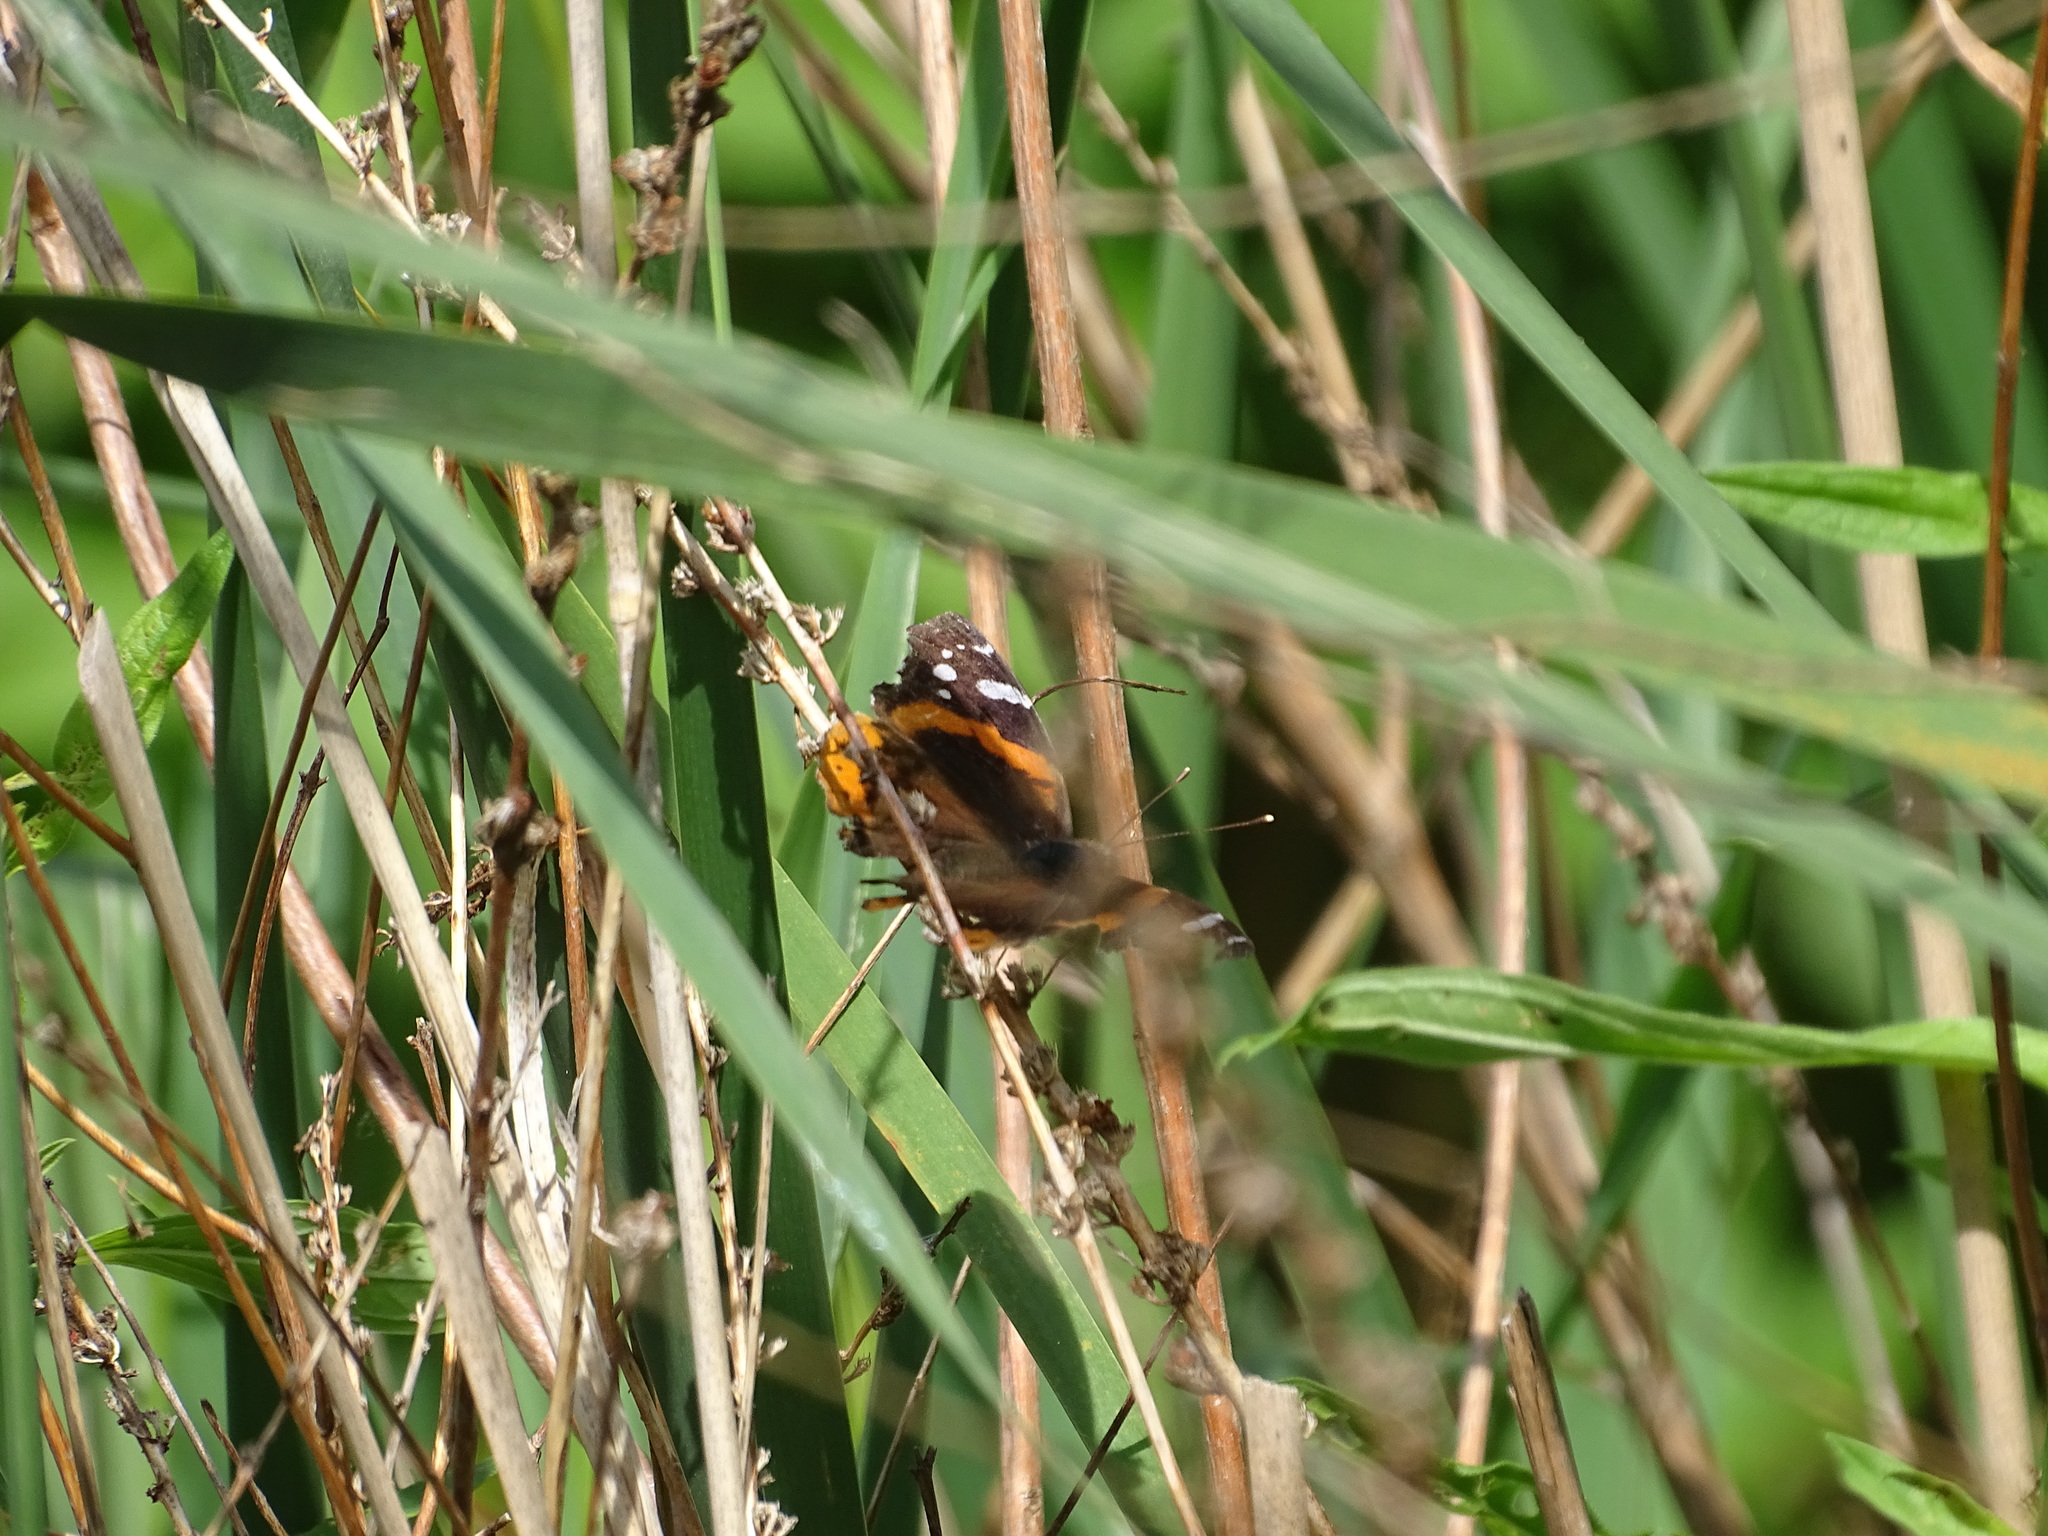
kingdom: Animalia
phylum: Arthropoda
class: Insecta
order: Lepidoptera
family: Nymphalidae
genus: Vanessa
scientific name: Vanessa atalanta
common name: Red admiral
